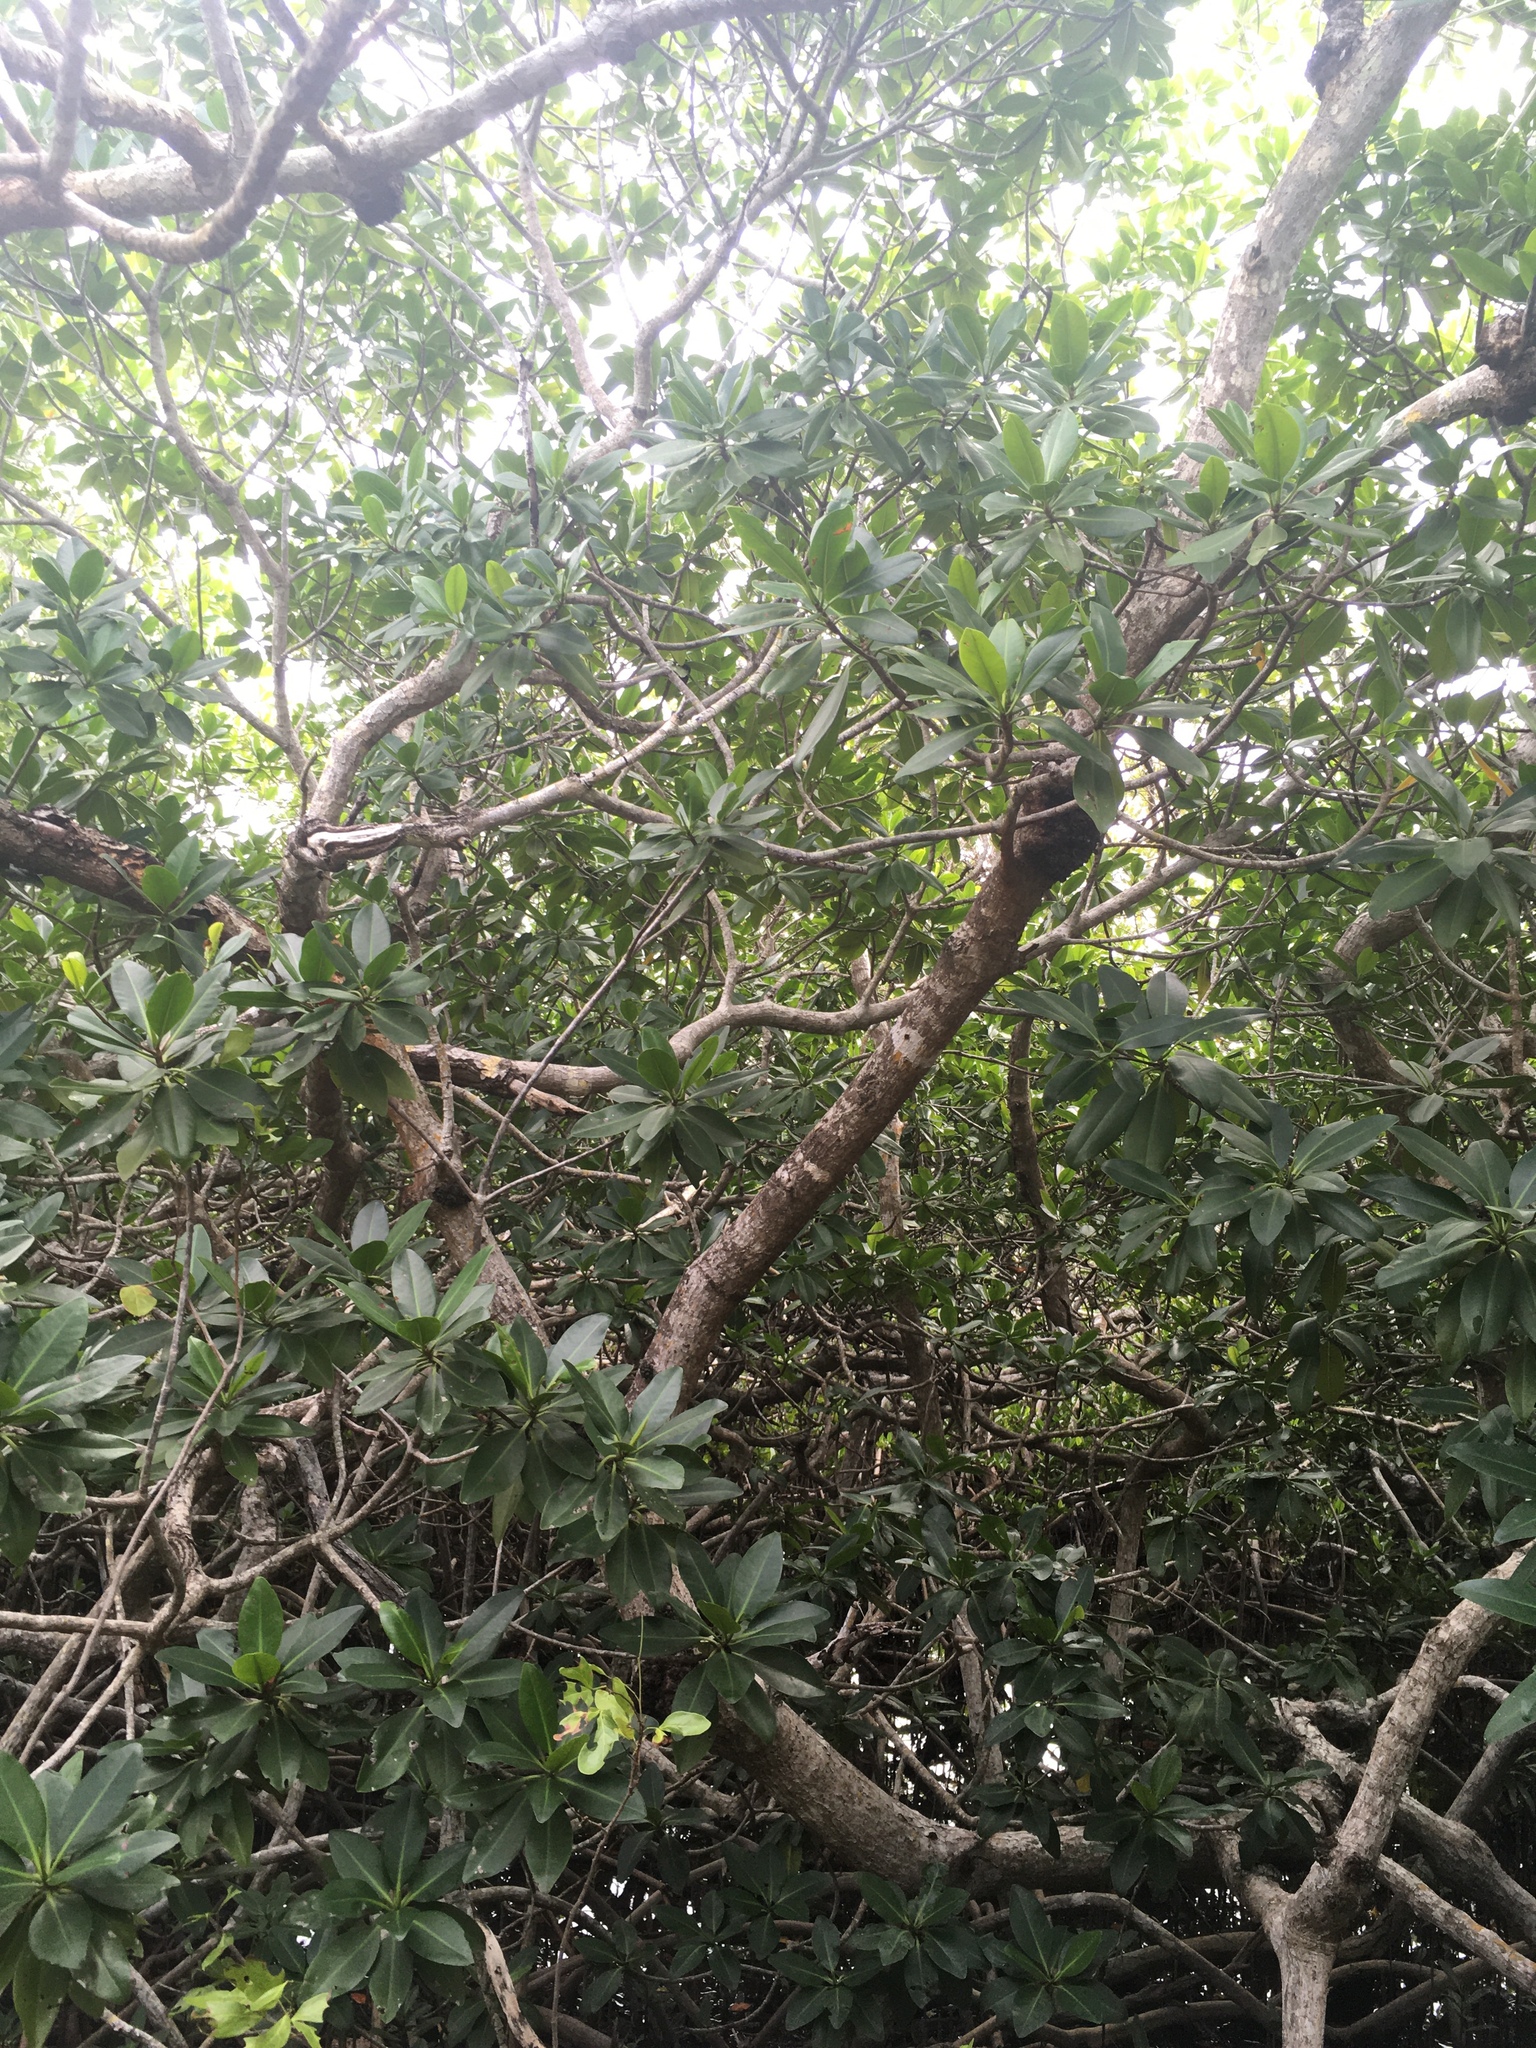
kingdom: Plantae
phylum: Tracheophyta
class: Magnoliopsida
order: Malpighiales
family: Rhizophoraceae
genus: Rhizophora
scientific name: Rhizophora mangle
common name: Red mangrove
